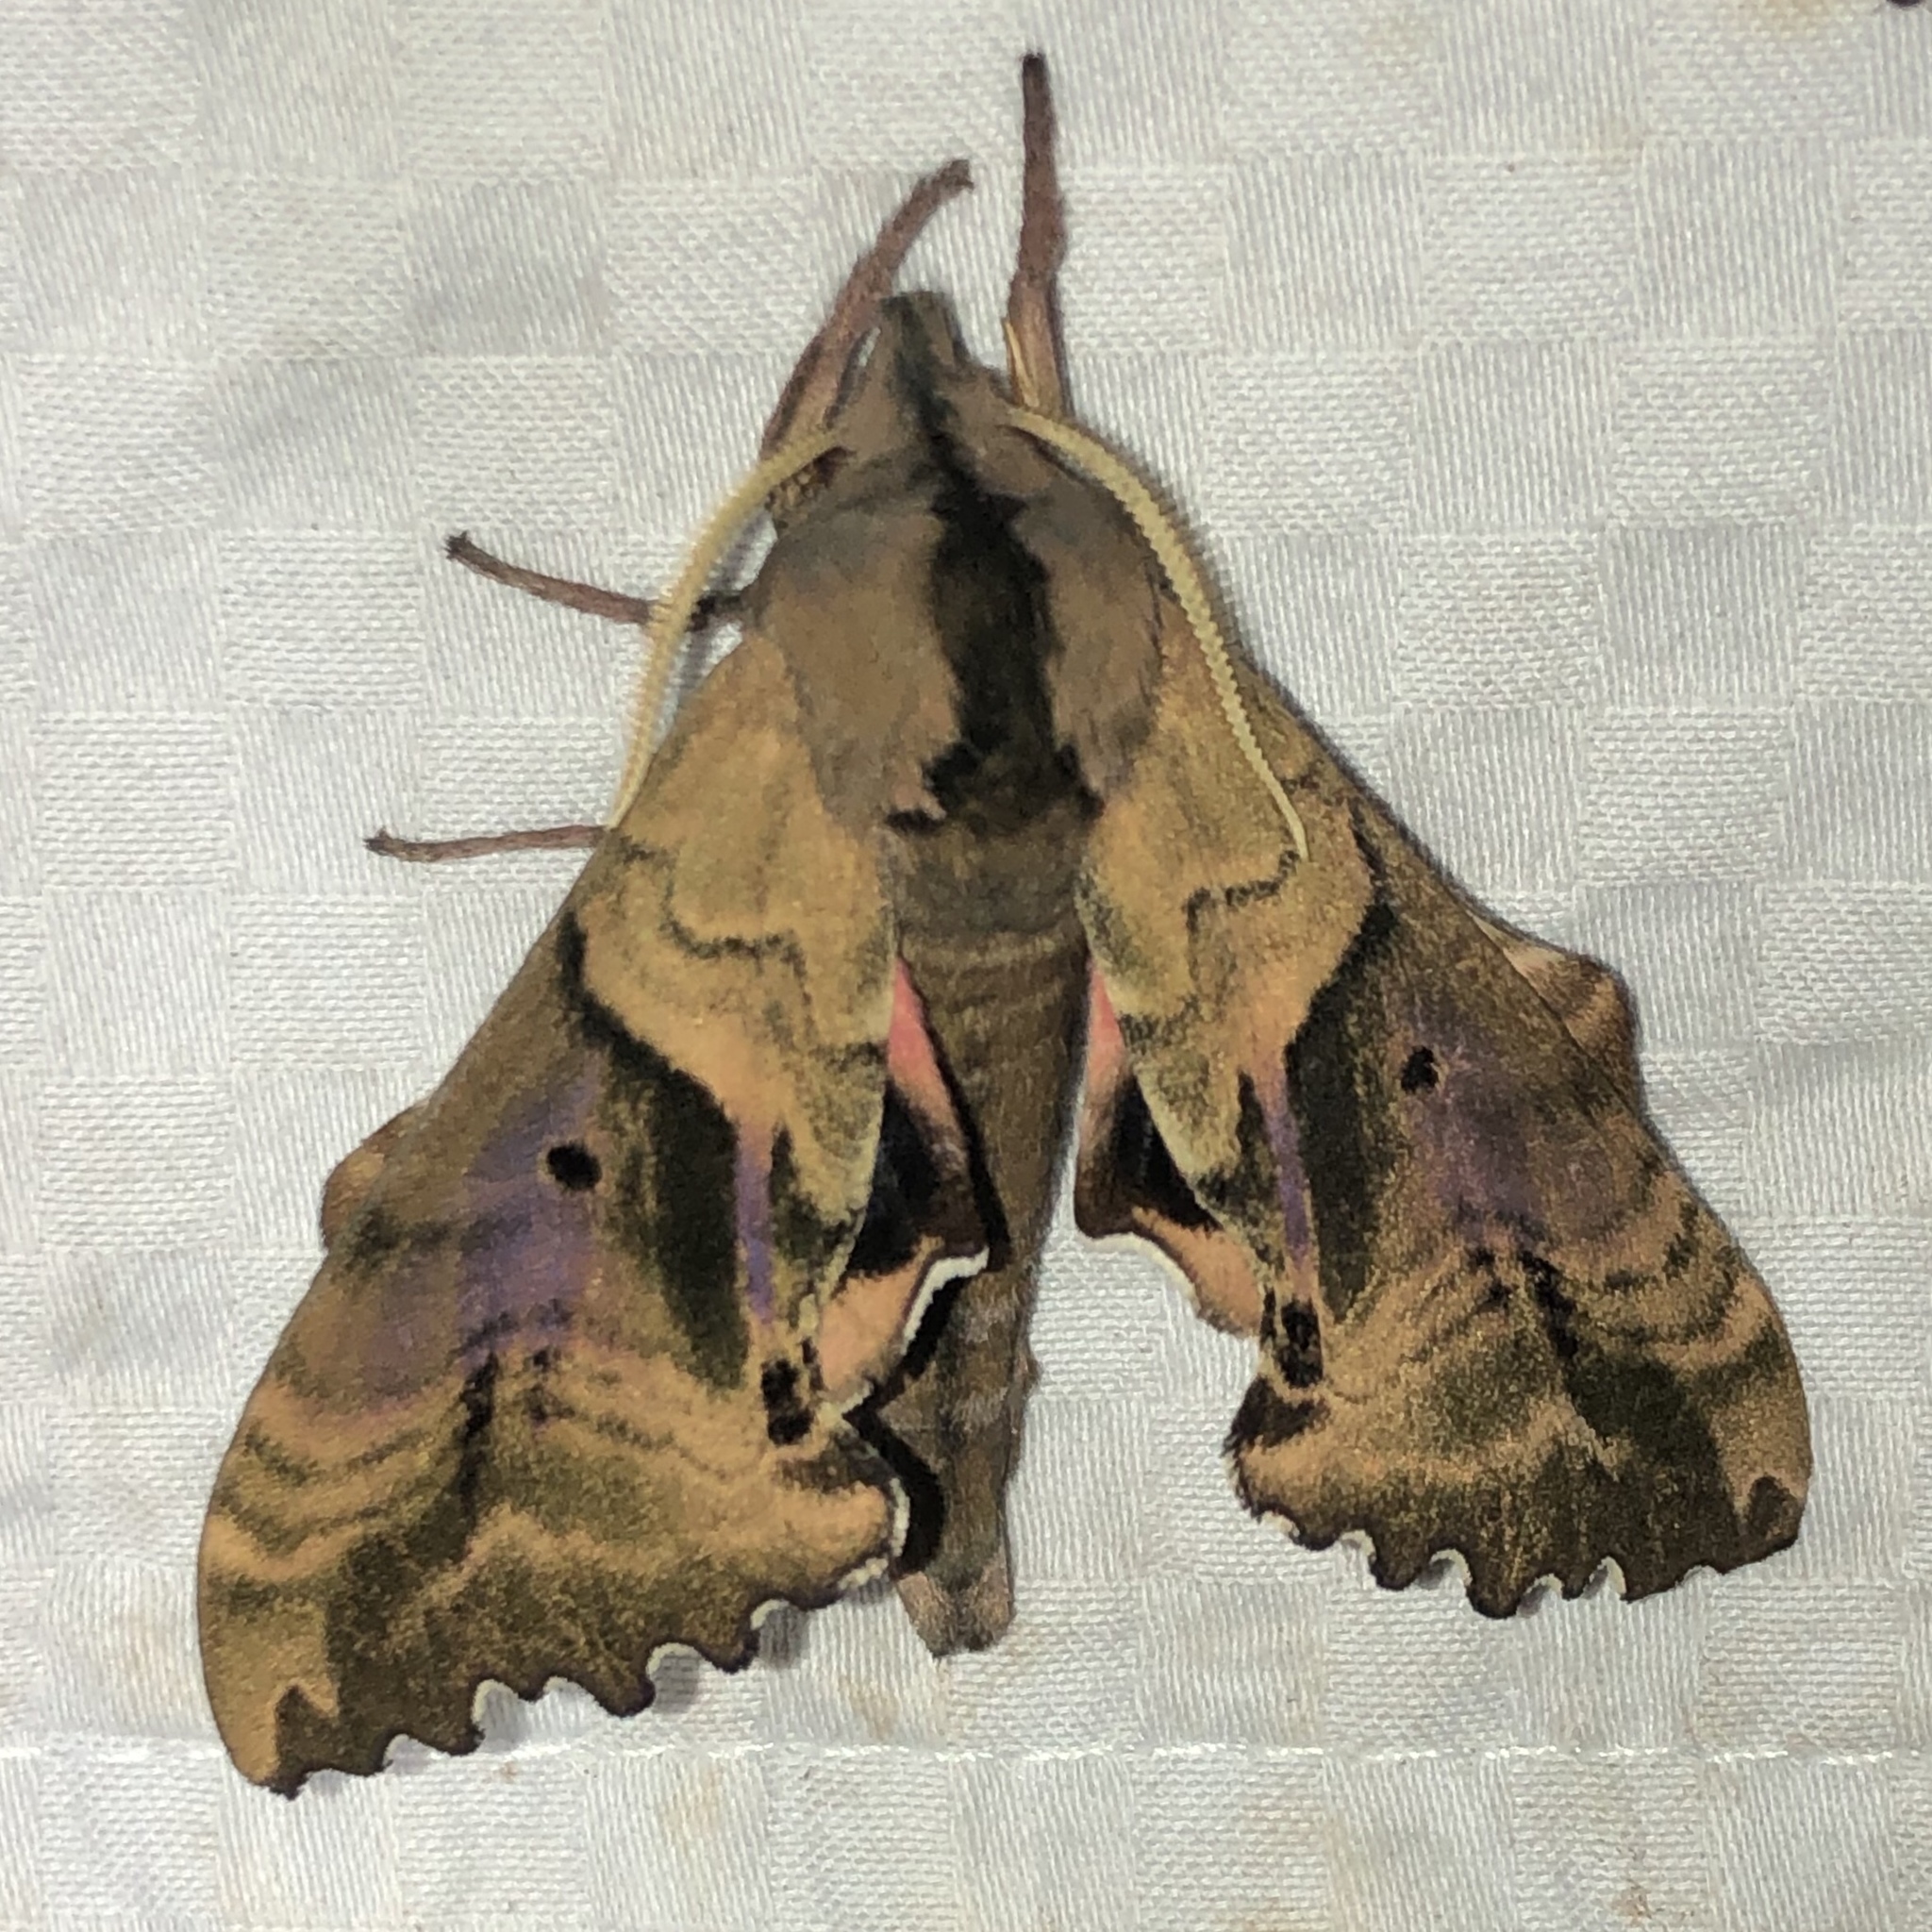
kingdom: Animalia
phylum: Arthropoda
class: Insecta
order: Lepidoptera
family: Sphingidae
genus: Paonias
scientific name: Paonias excaecata
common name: Blind-eyed sphinx
